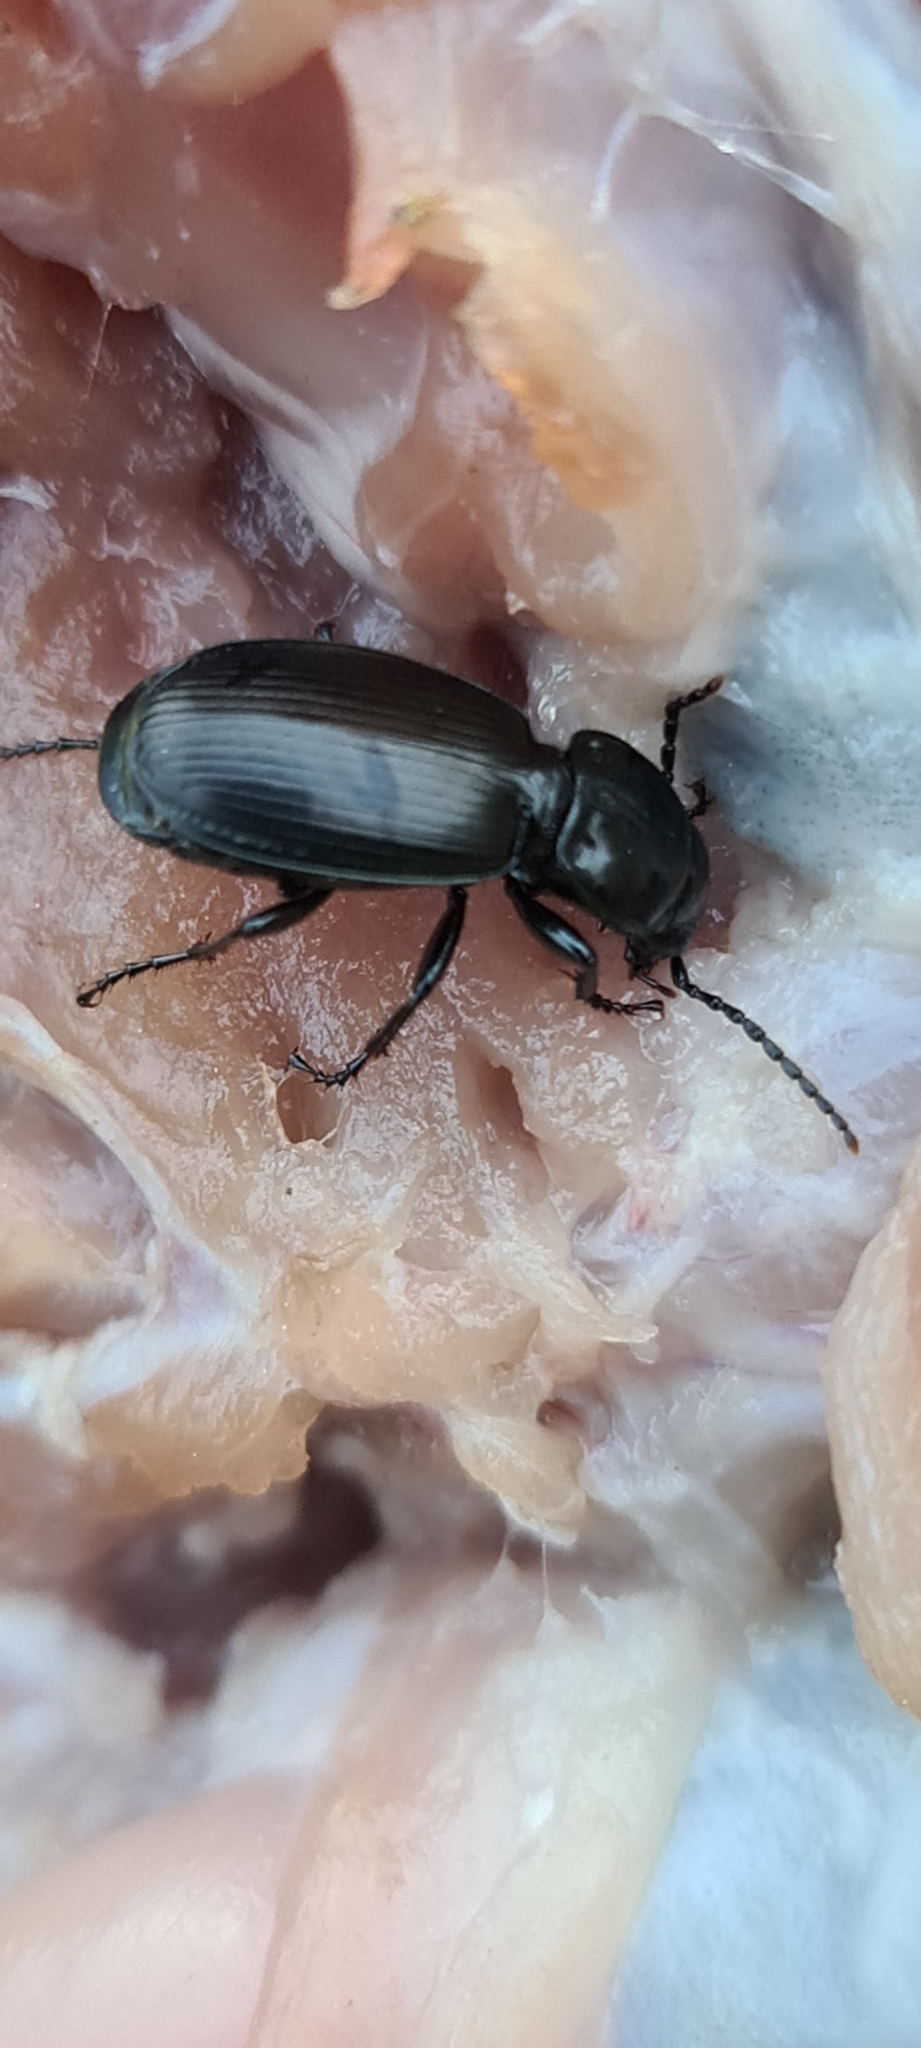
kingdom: Animalia
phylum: Arthropoda
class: Insecta
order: Coleoptera
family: Carabidae
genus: Pterostichus
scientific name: Pterostichus madidus
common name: Black clock
